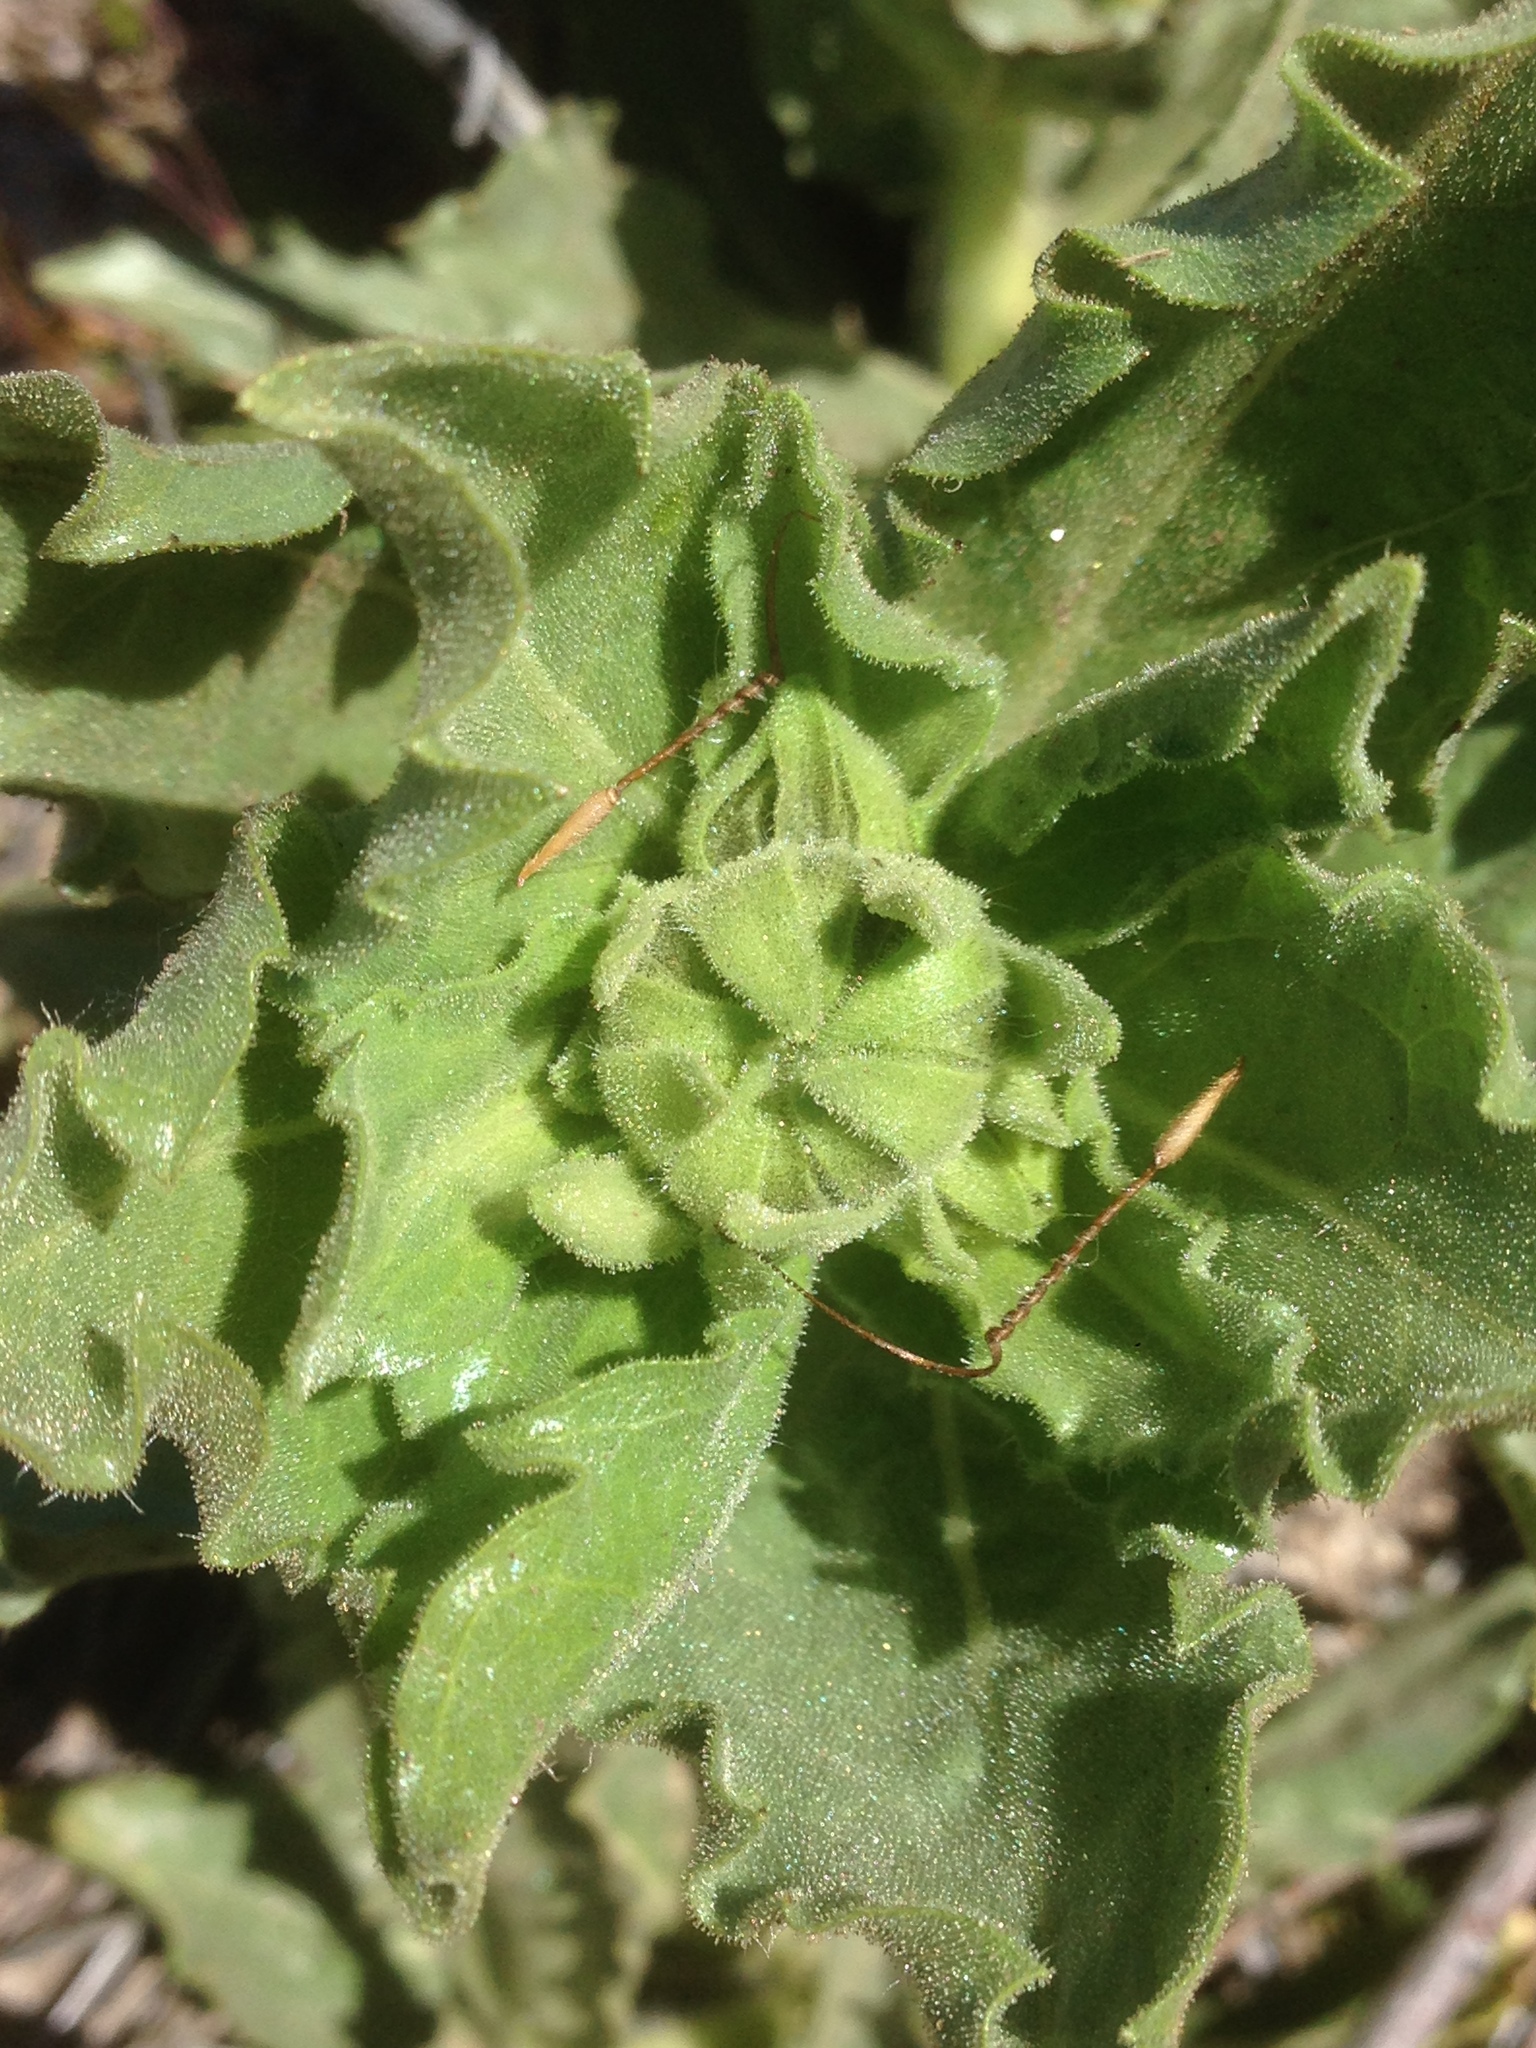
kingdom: Plantae
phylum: Tracheophyta
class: Magnoliopsida
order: Asterales
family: Asteraceae
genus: Geraea
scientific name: Geraea viscida
